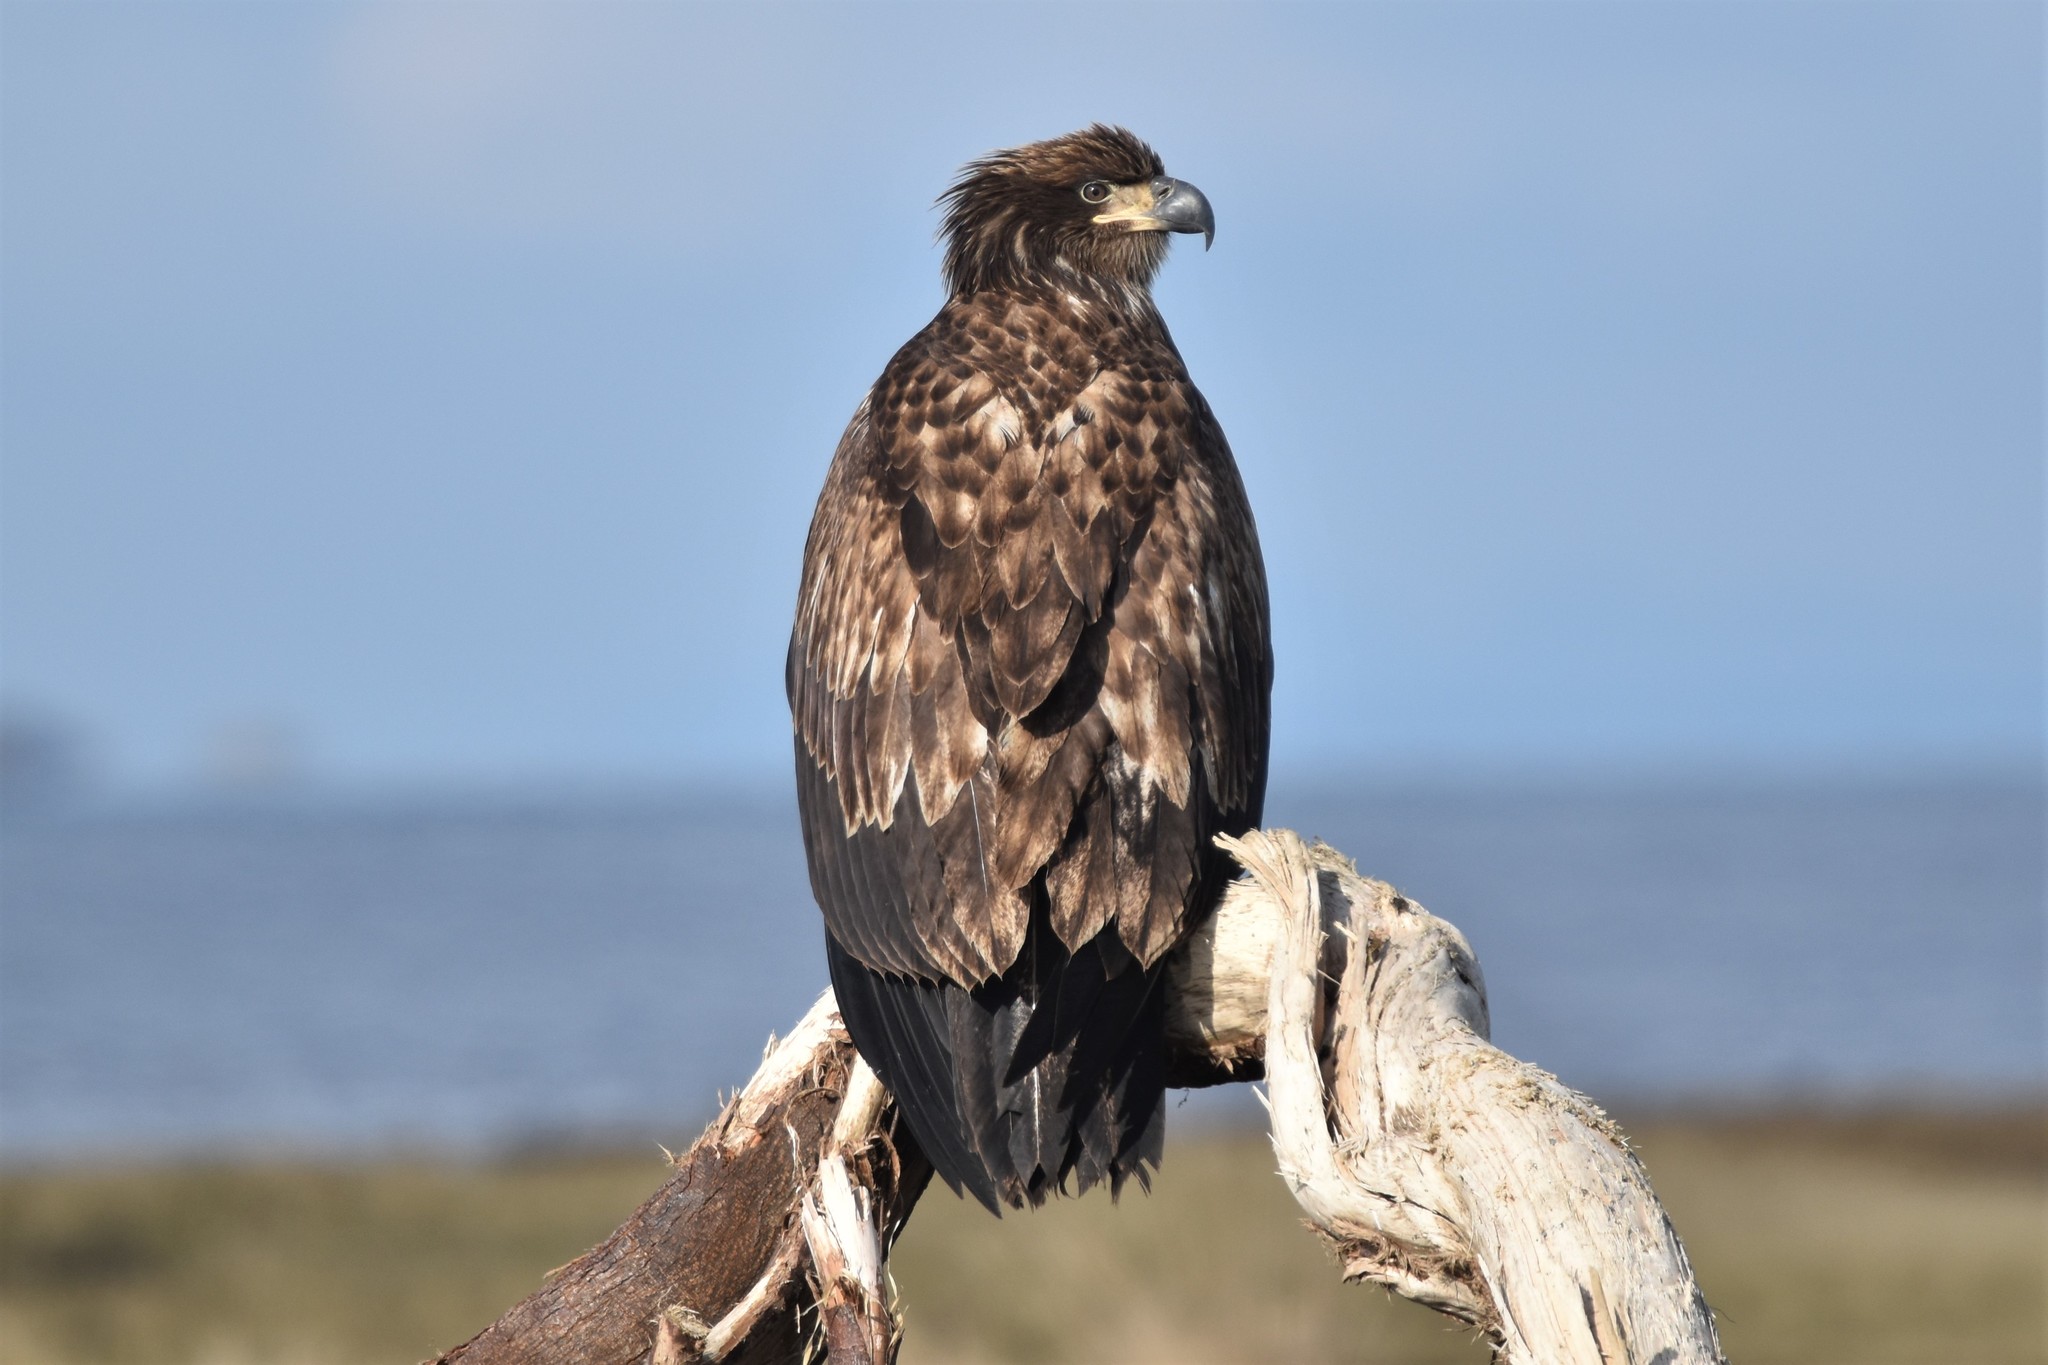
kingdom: Animalia
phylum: Chordata
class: Aves
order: Accipitriformes
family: Accipitridae
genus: Haliaeetus
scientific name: Haliaeetus leucocephalus
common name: Bald eagle
